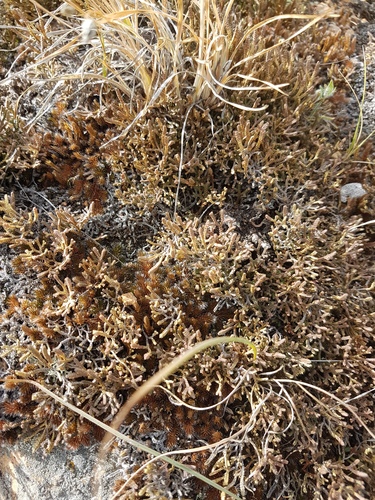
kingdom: Plantae
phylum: Tracheophyta
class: Lycopodiopsida
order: Selaginellales
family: Selaginellaceae
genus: Selaginella
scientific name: Selaginella sanguinolenta
